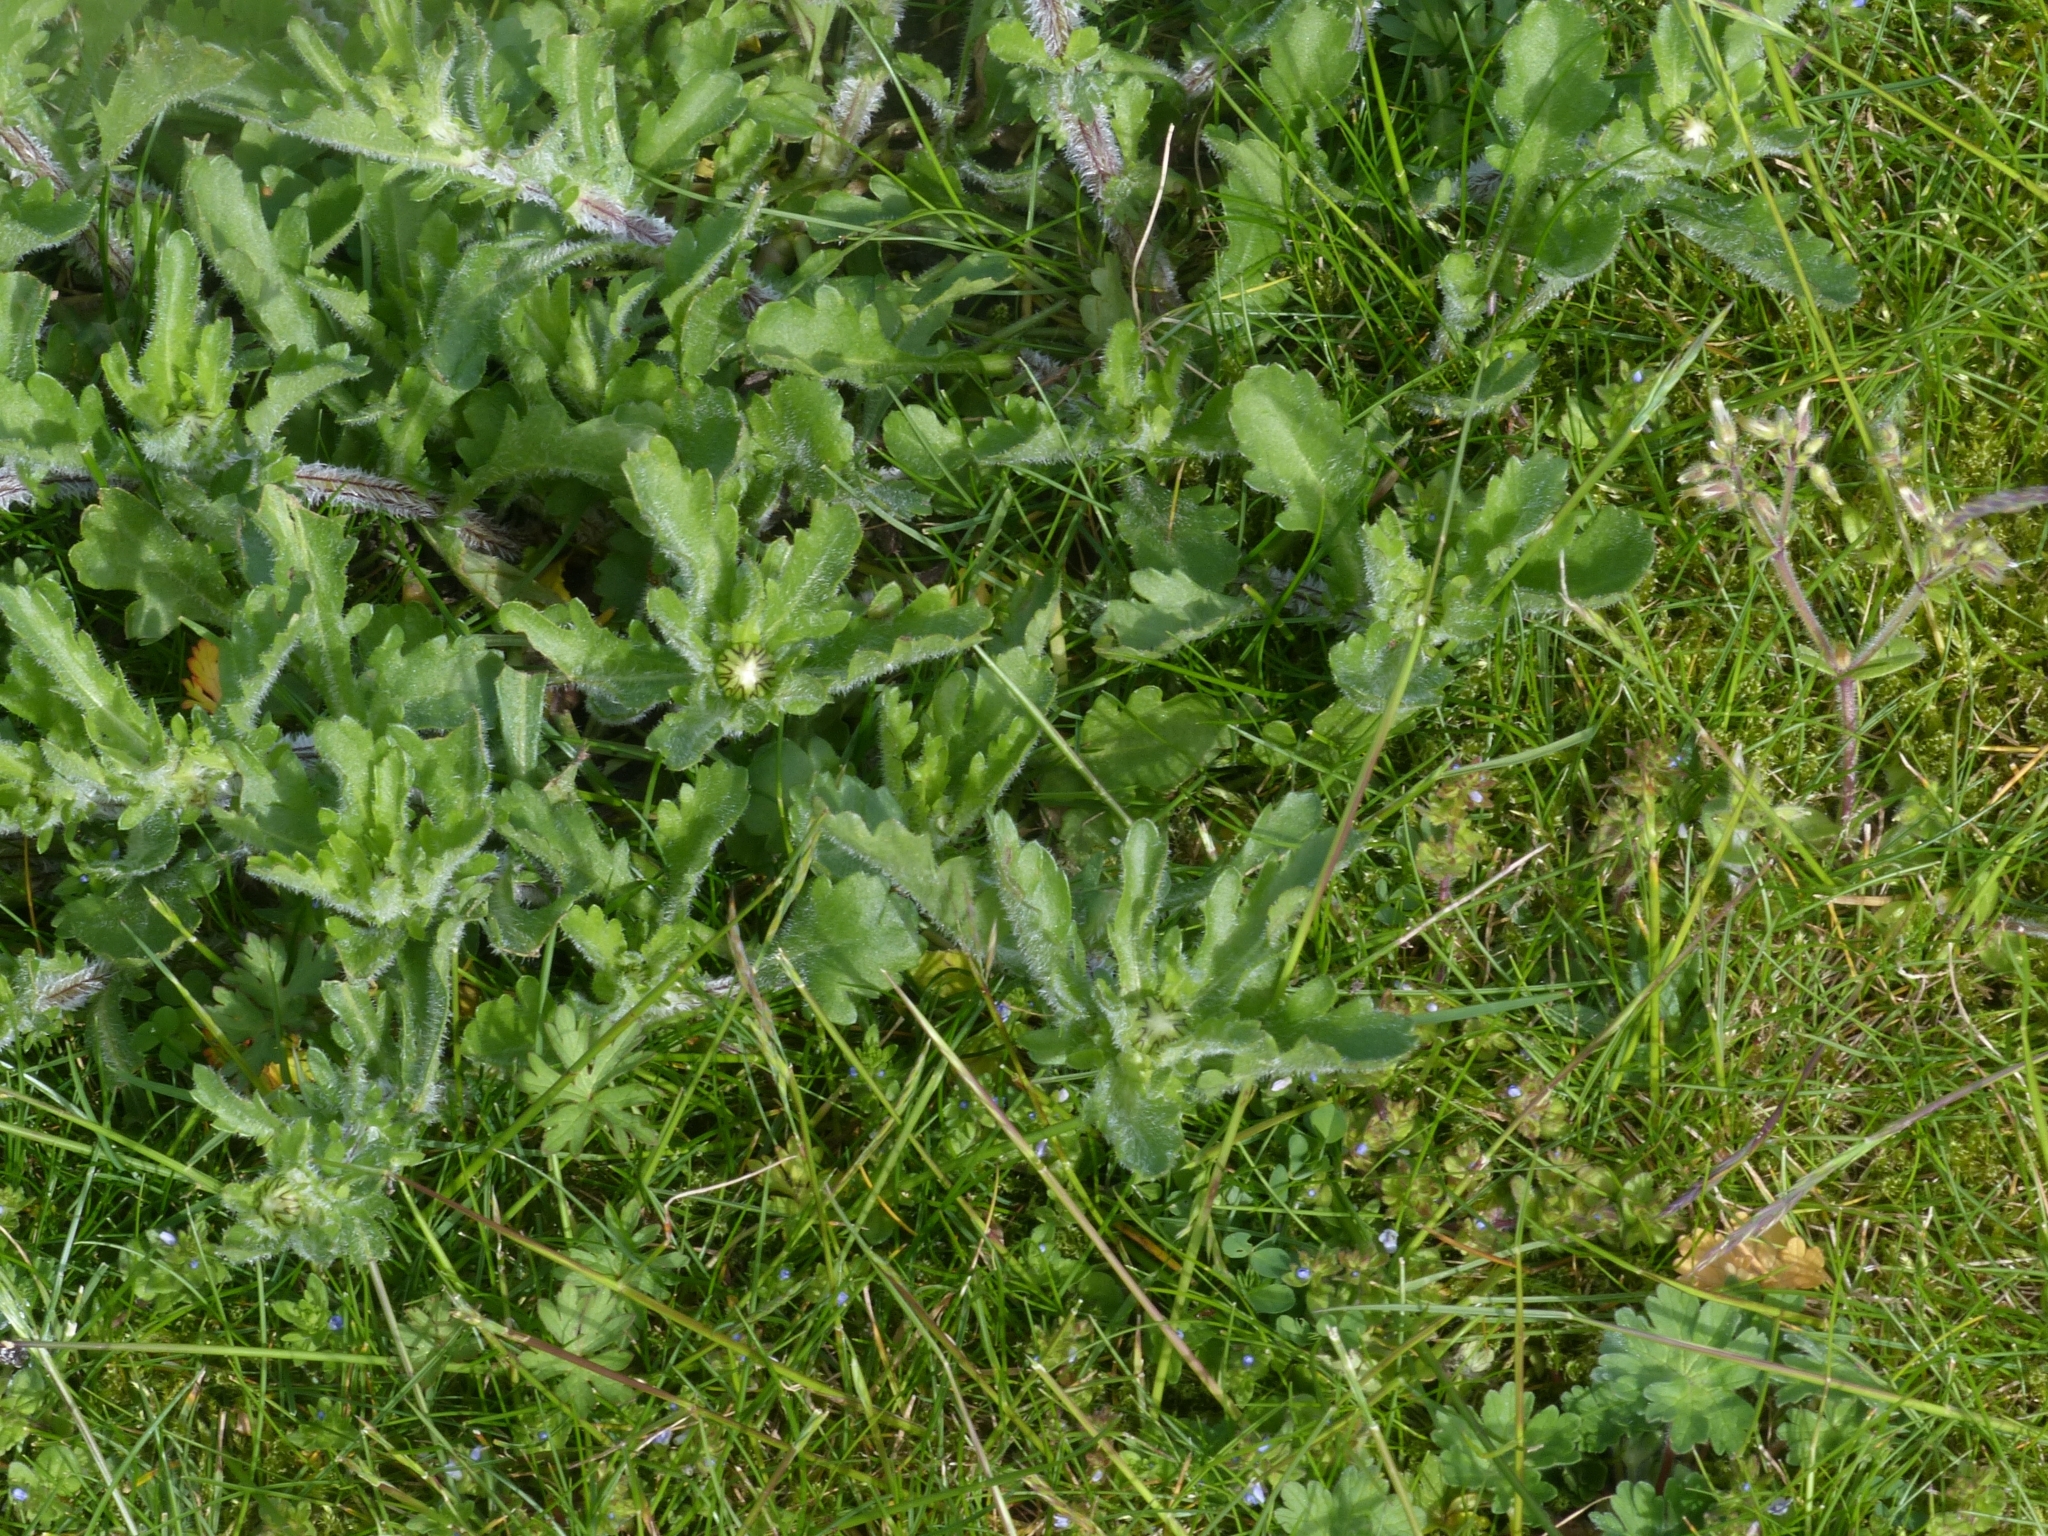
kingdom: Plantae
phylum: Tracheophyta
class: Magnoliopsida
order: Asterales
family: Asteraceae
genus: Leucanthemum
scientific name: Leucanthemum vulgare
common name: Oxeye daisy
